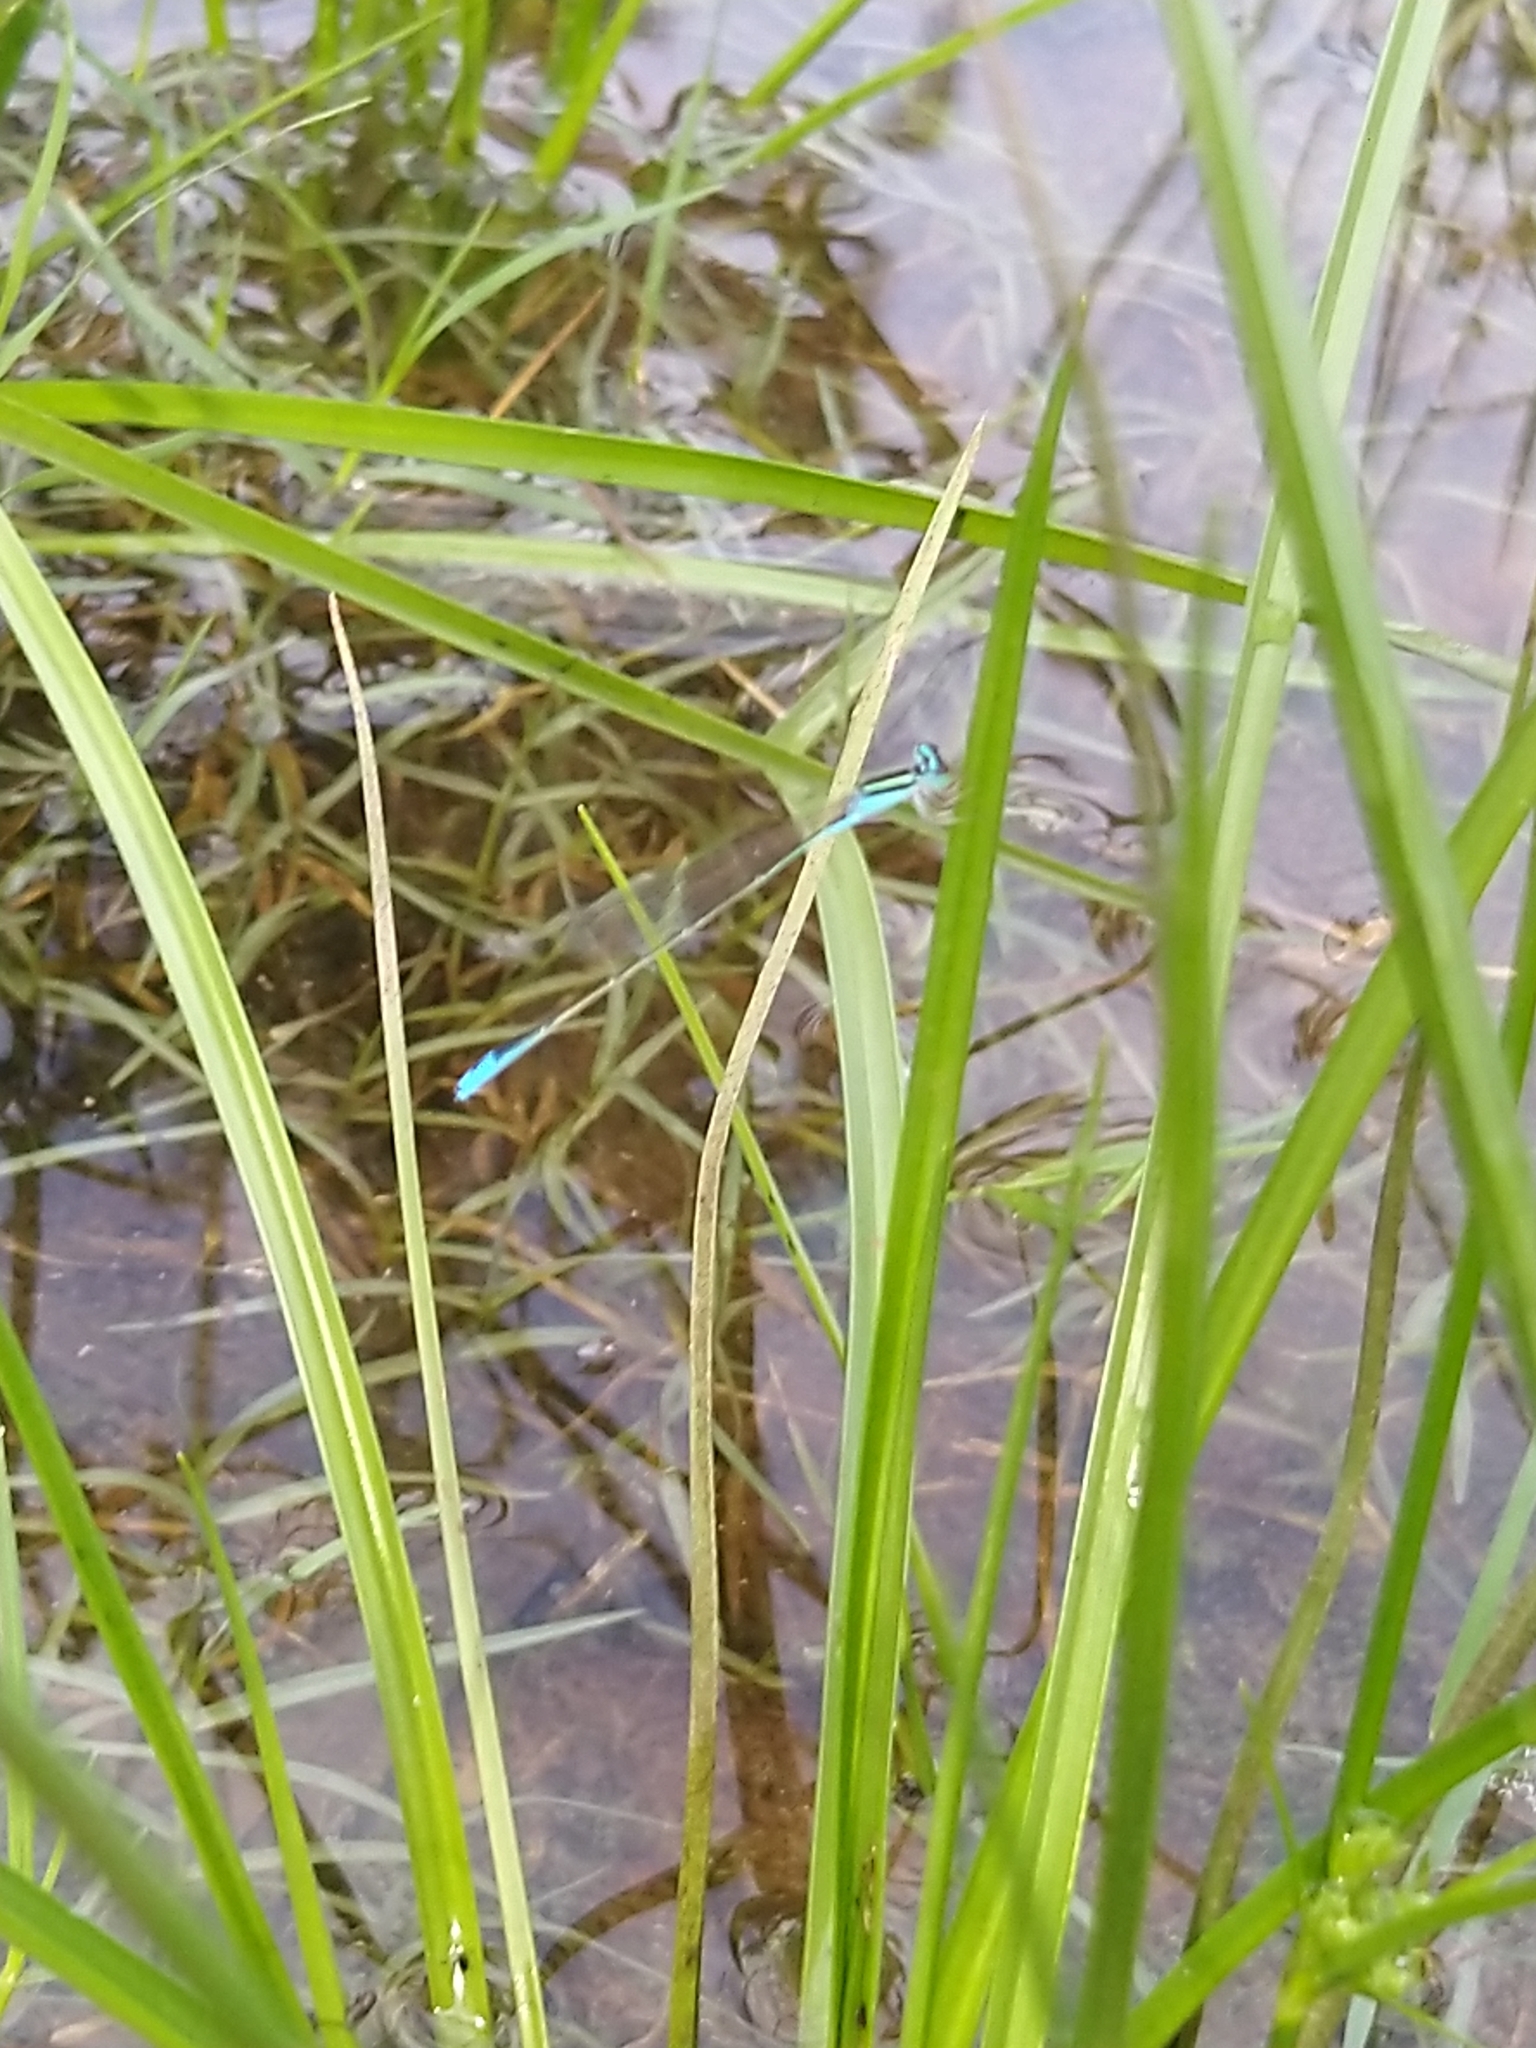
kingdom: Animalia
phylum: Arthropoda
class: Insecta
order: Odonata
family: Coenagrionidae
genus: Aciagrion
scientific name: Aciagrion occidentale
